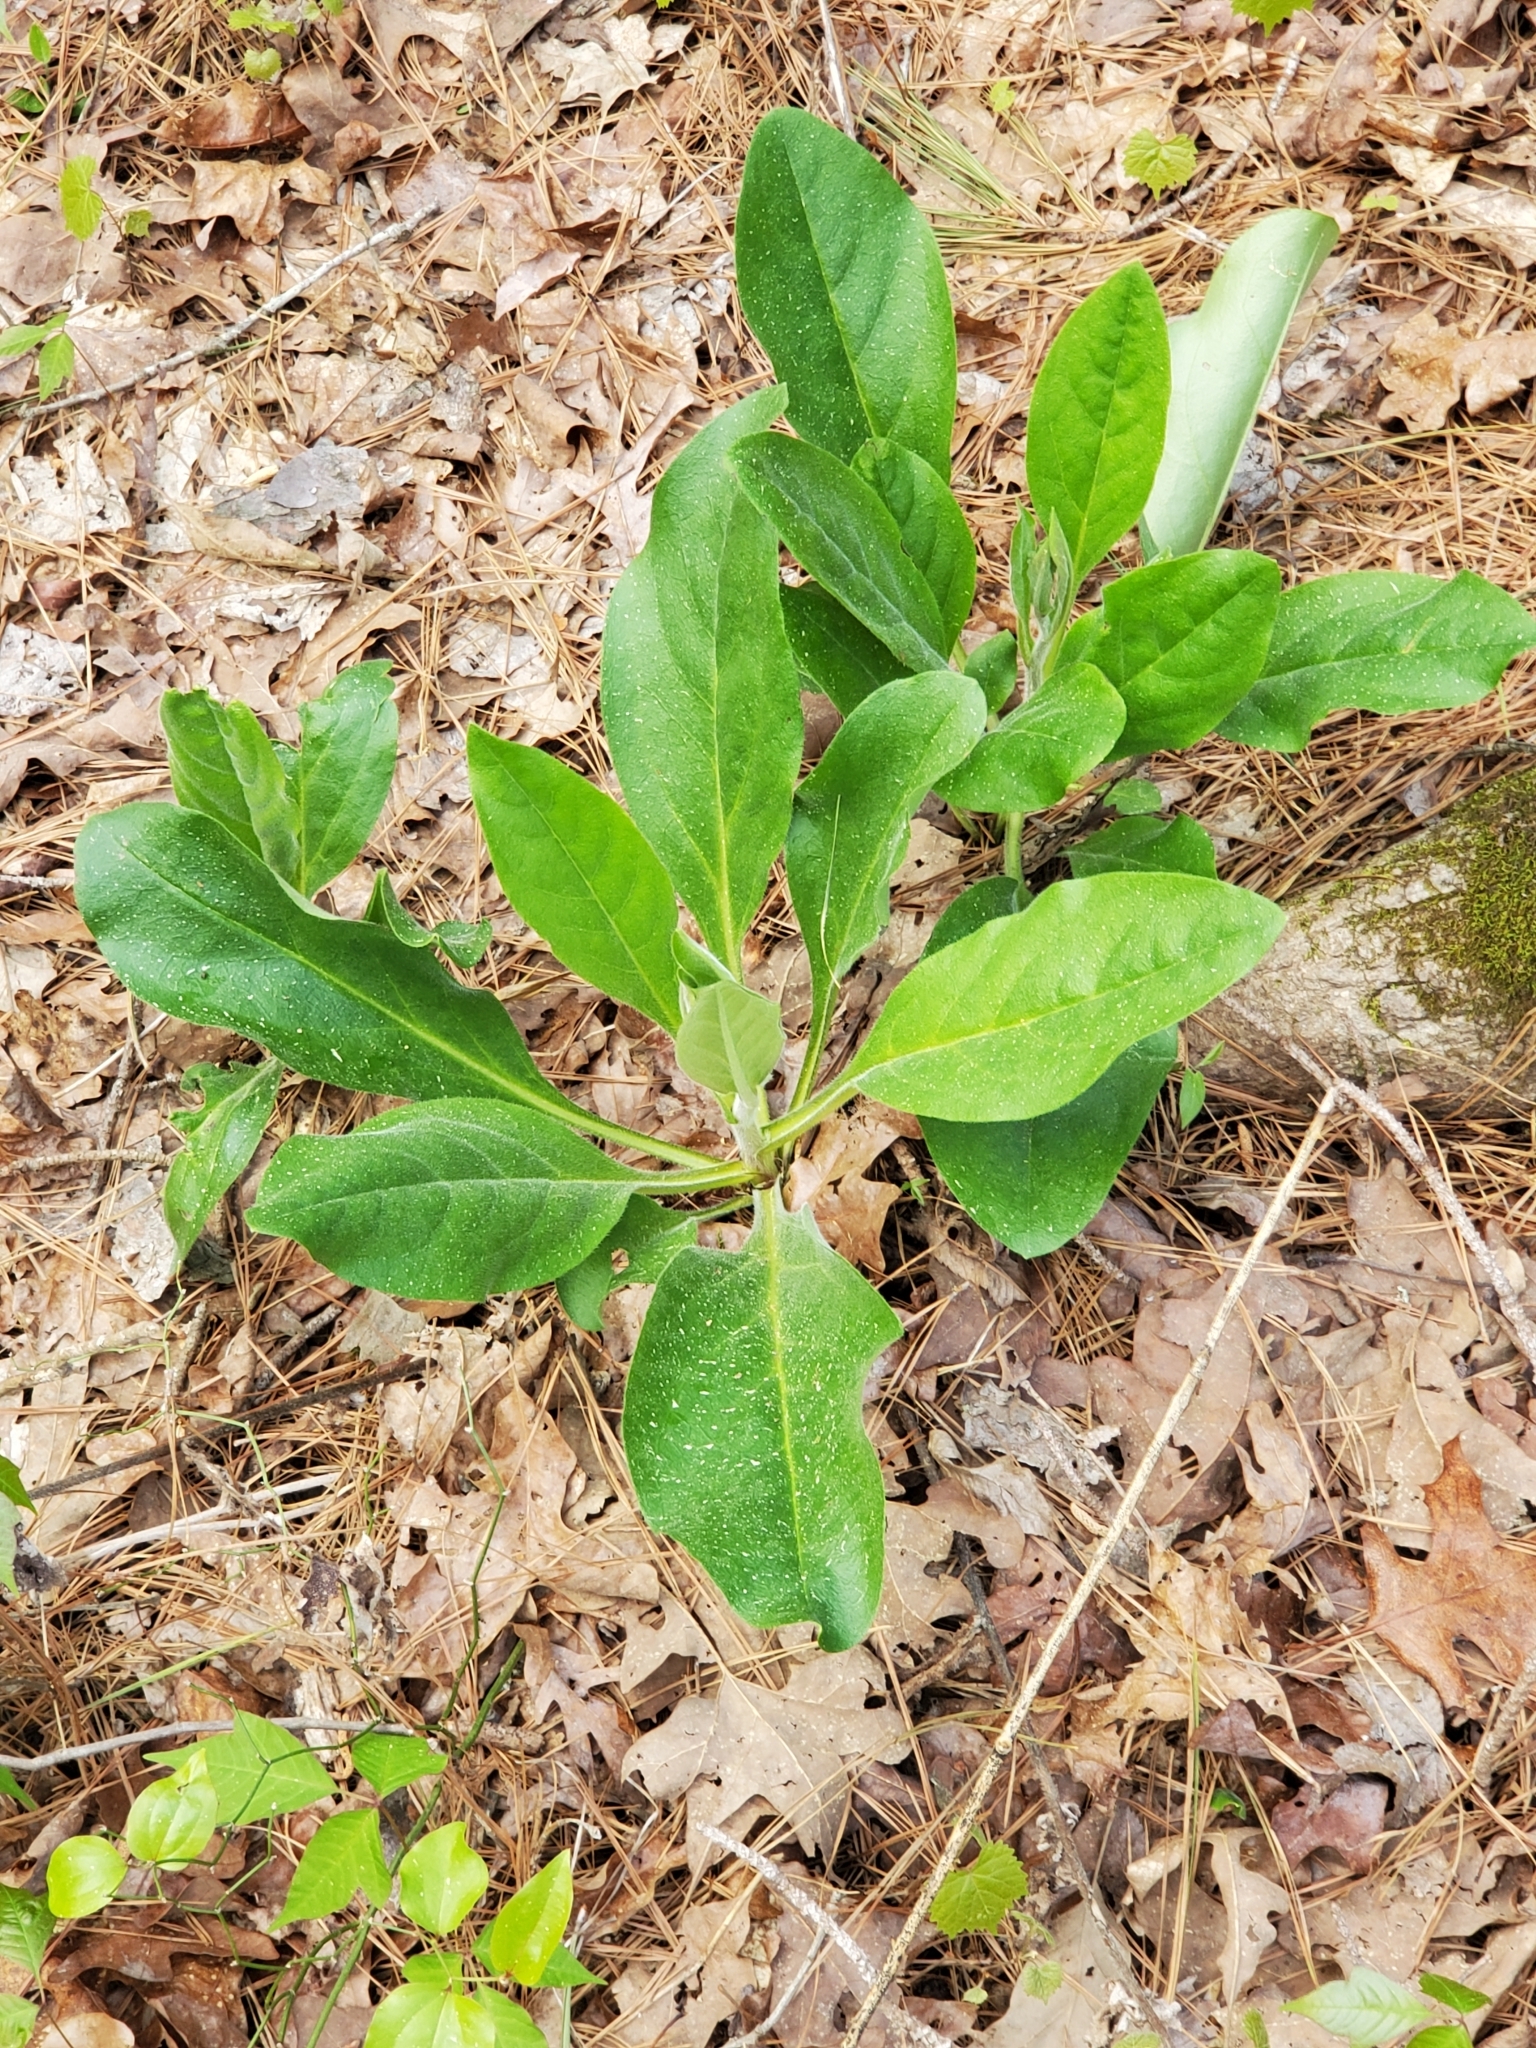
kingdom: Plantae
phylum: Tracheophyta
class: Magnoliopsida
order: Boraginales
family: Boraginaceae
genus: Andersonglossum
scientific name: Andersonglossum virginianum
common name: Wild comfrey
